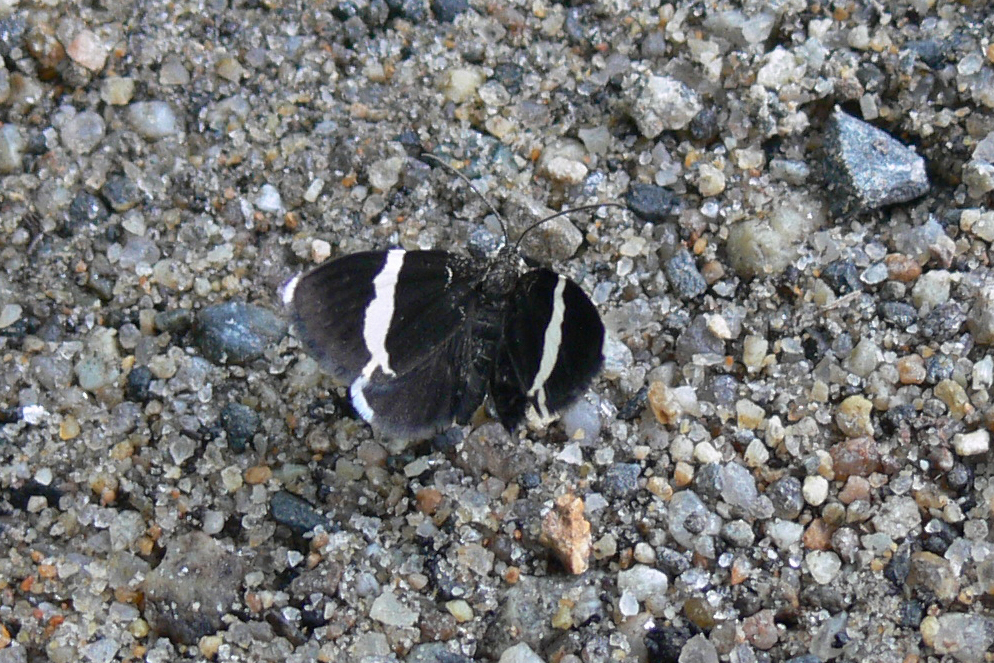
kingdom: Animalia
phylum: Arthropoda
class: Insecta
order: Lepidoptera
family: Geometridae
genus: Trichodezia
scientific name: Trichodezia albovittata
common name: White striped black
